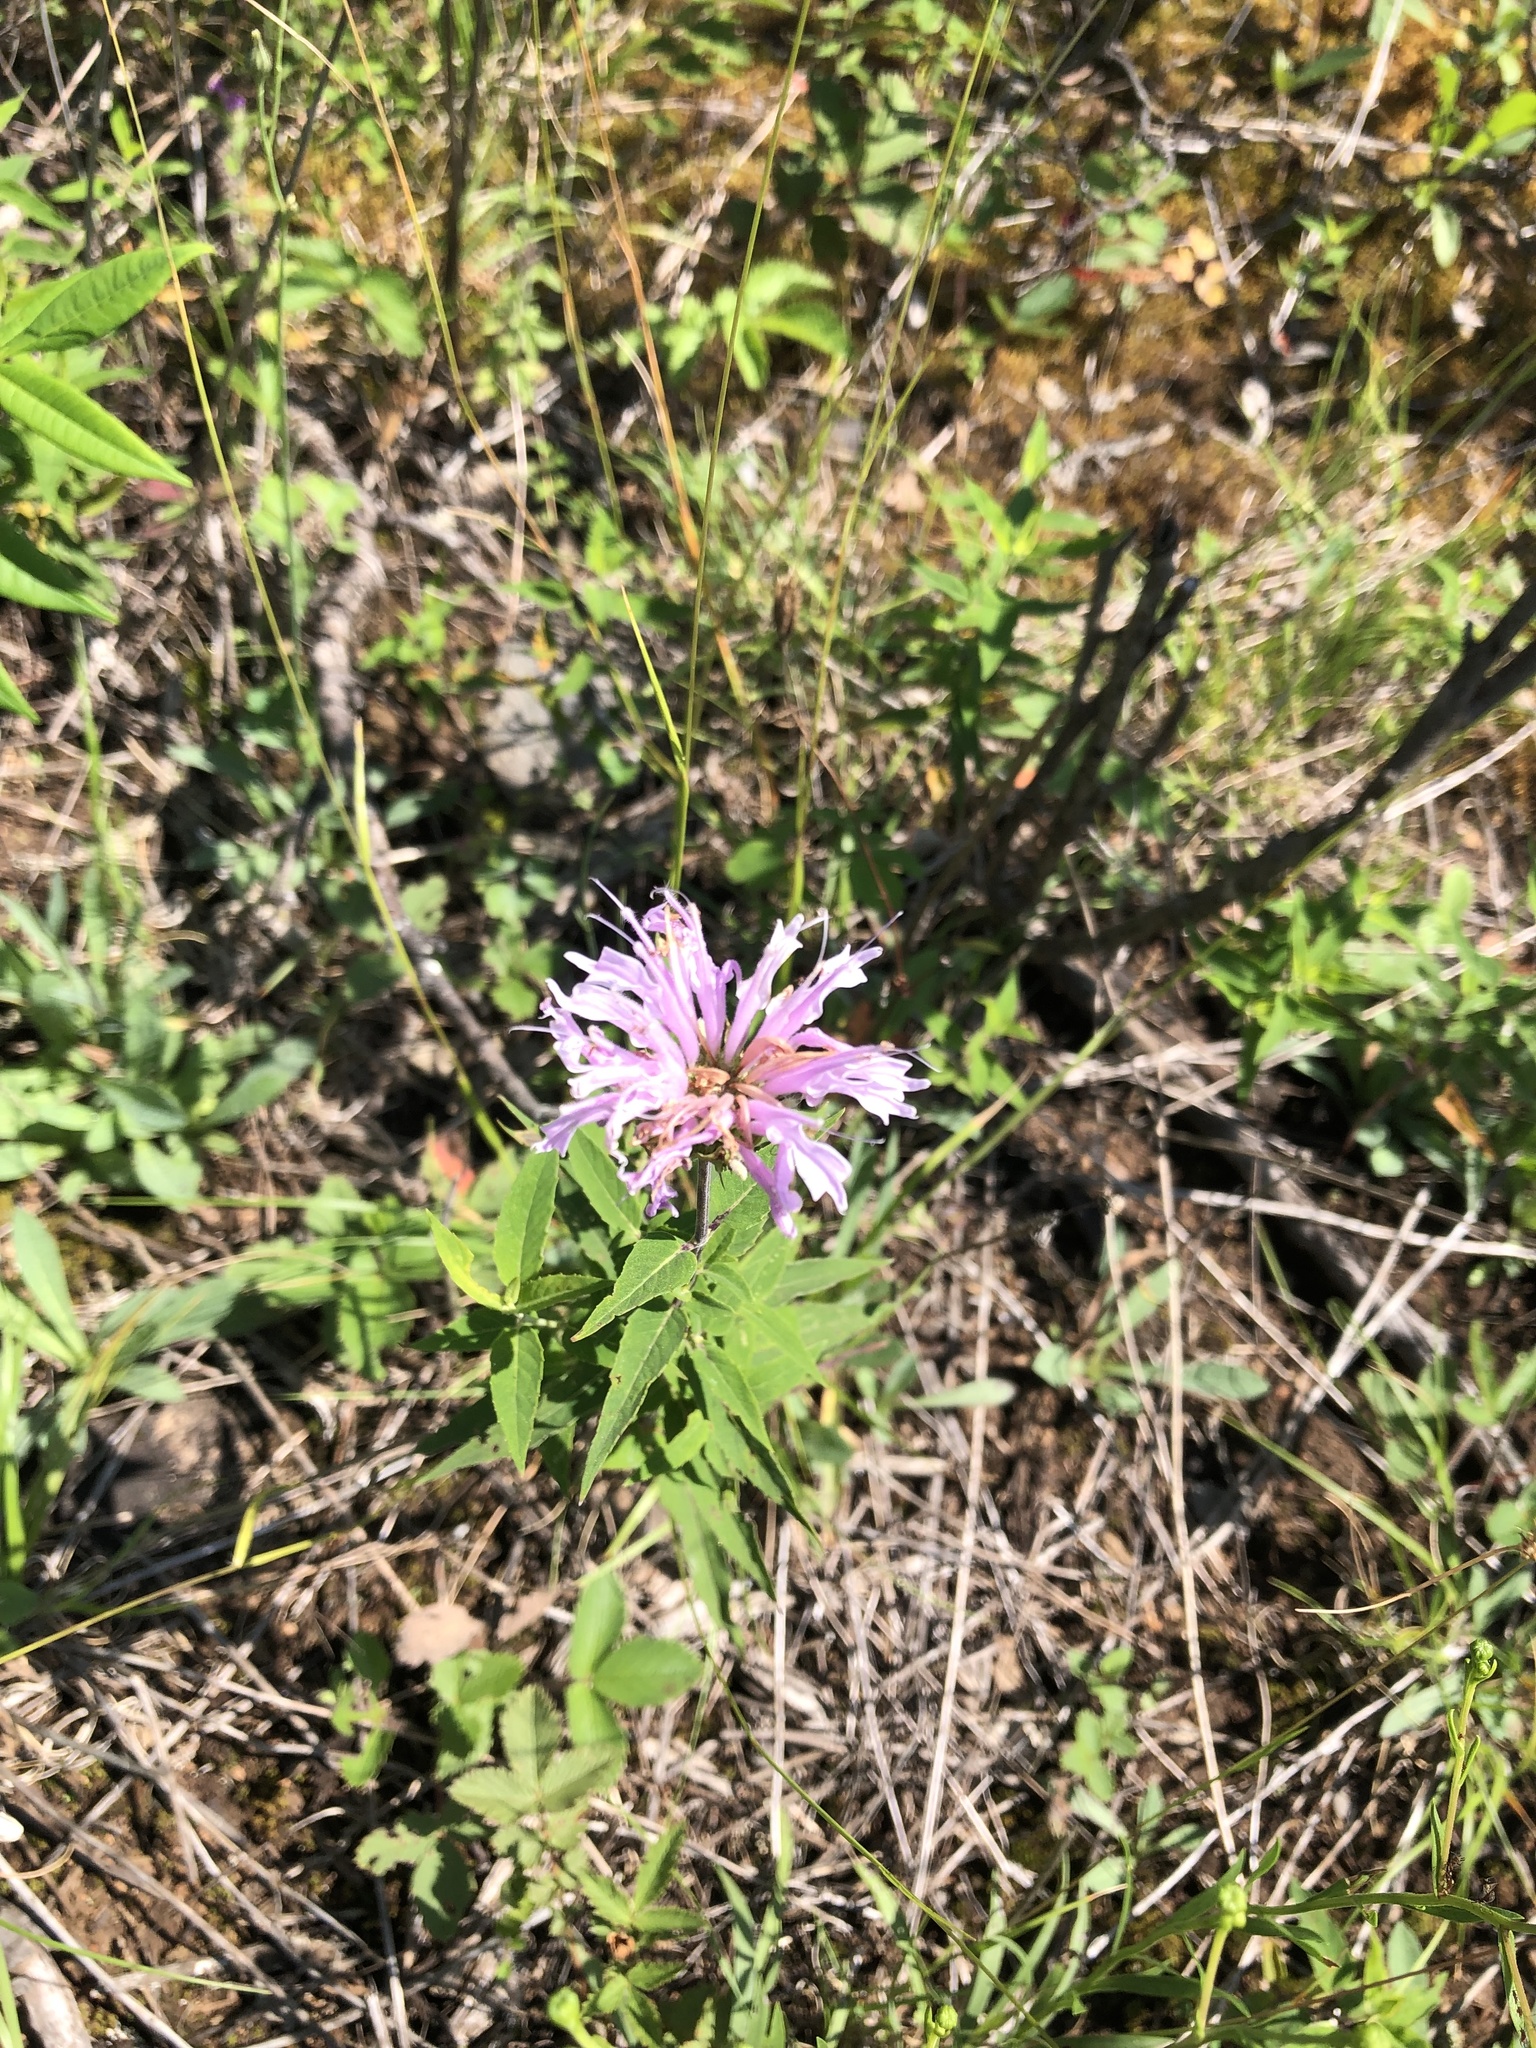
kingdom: Plantae
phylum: Tracheophyta
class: Magnoliopsida
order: Lamiales
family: Lamiaceae
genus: Monarda
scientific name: Monarda fistulosa
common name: Purple beebalm
